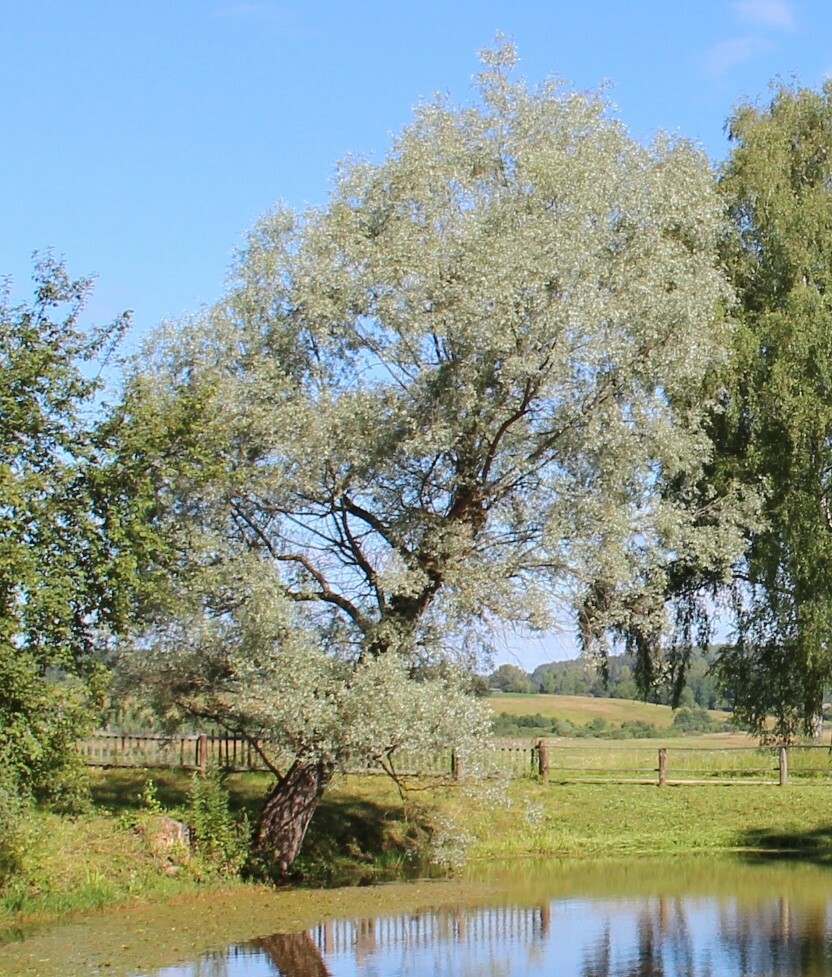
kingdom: Plantae
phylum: Tracheophyta
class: Magnoliopsida
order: Malpighiales
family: Salicaceae
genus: Salix
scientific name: Salix alba
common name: White willow
